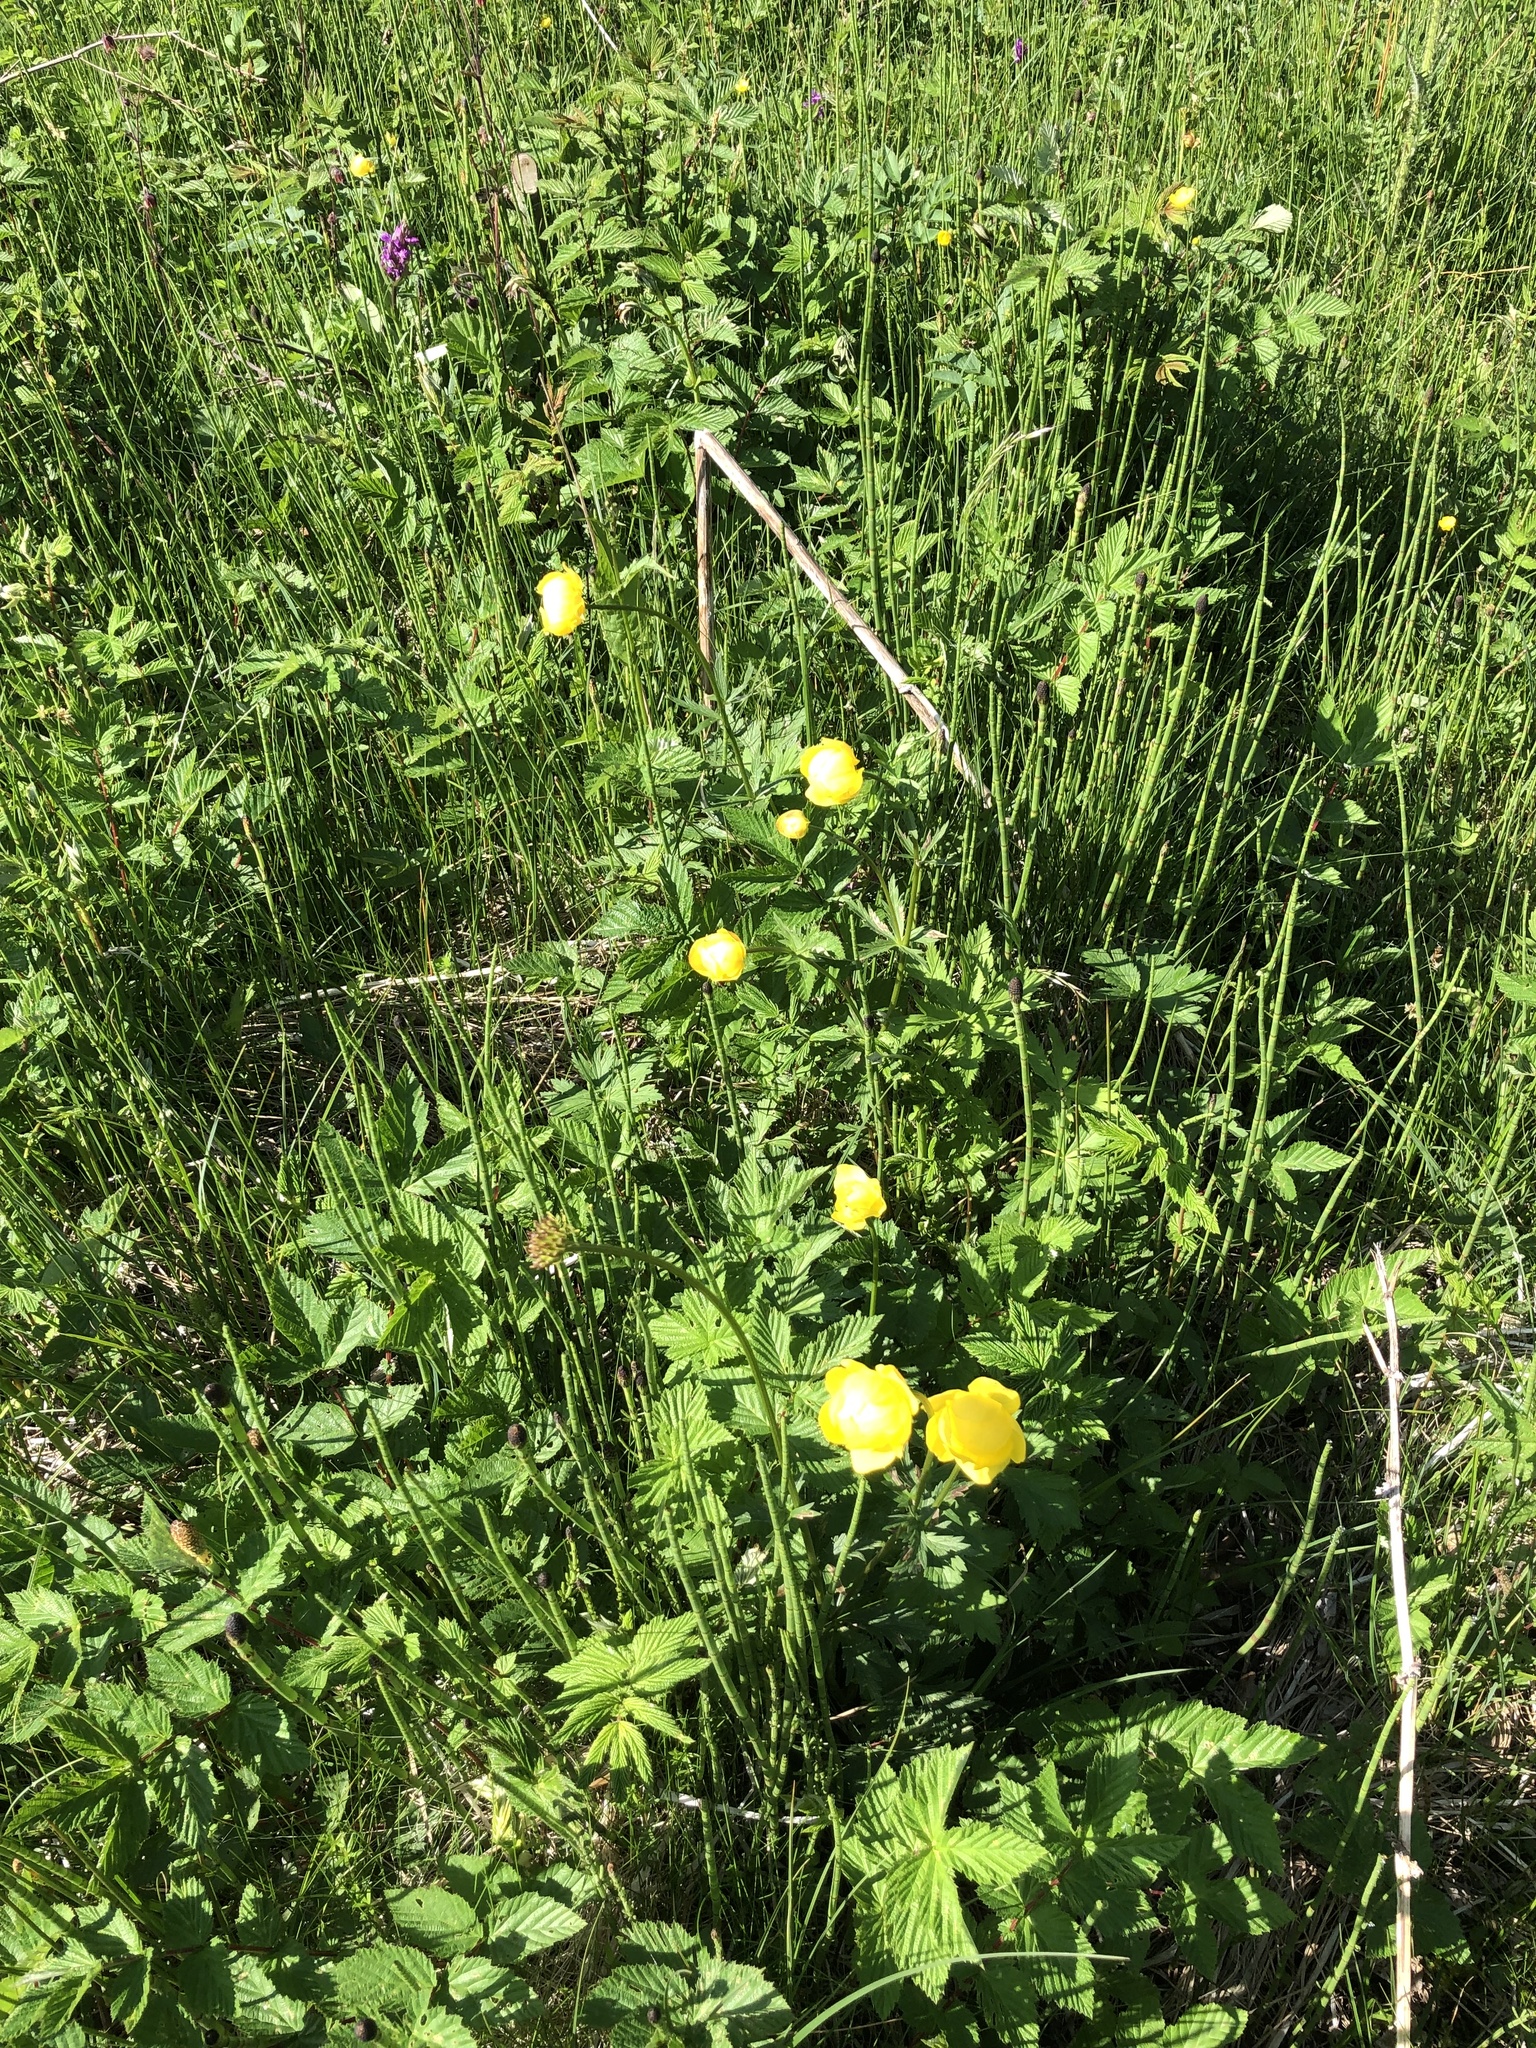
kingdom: Plantae
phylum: Tracheophyta
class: Magnoliopsida
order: Ranunculales
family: Ranunculaceae
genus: Trollius
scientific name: Trollius europaeus
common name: European globeflower
